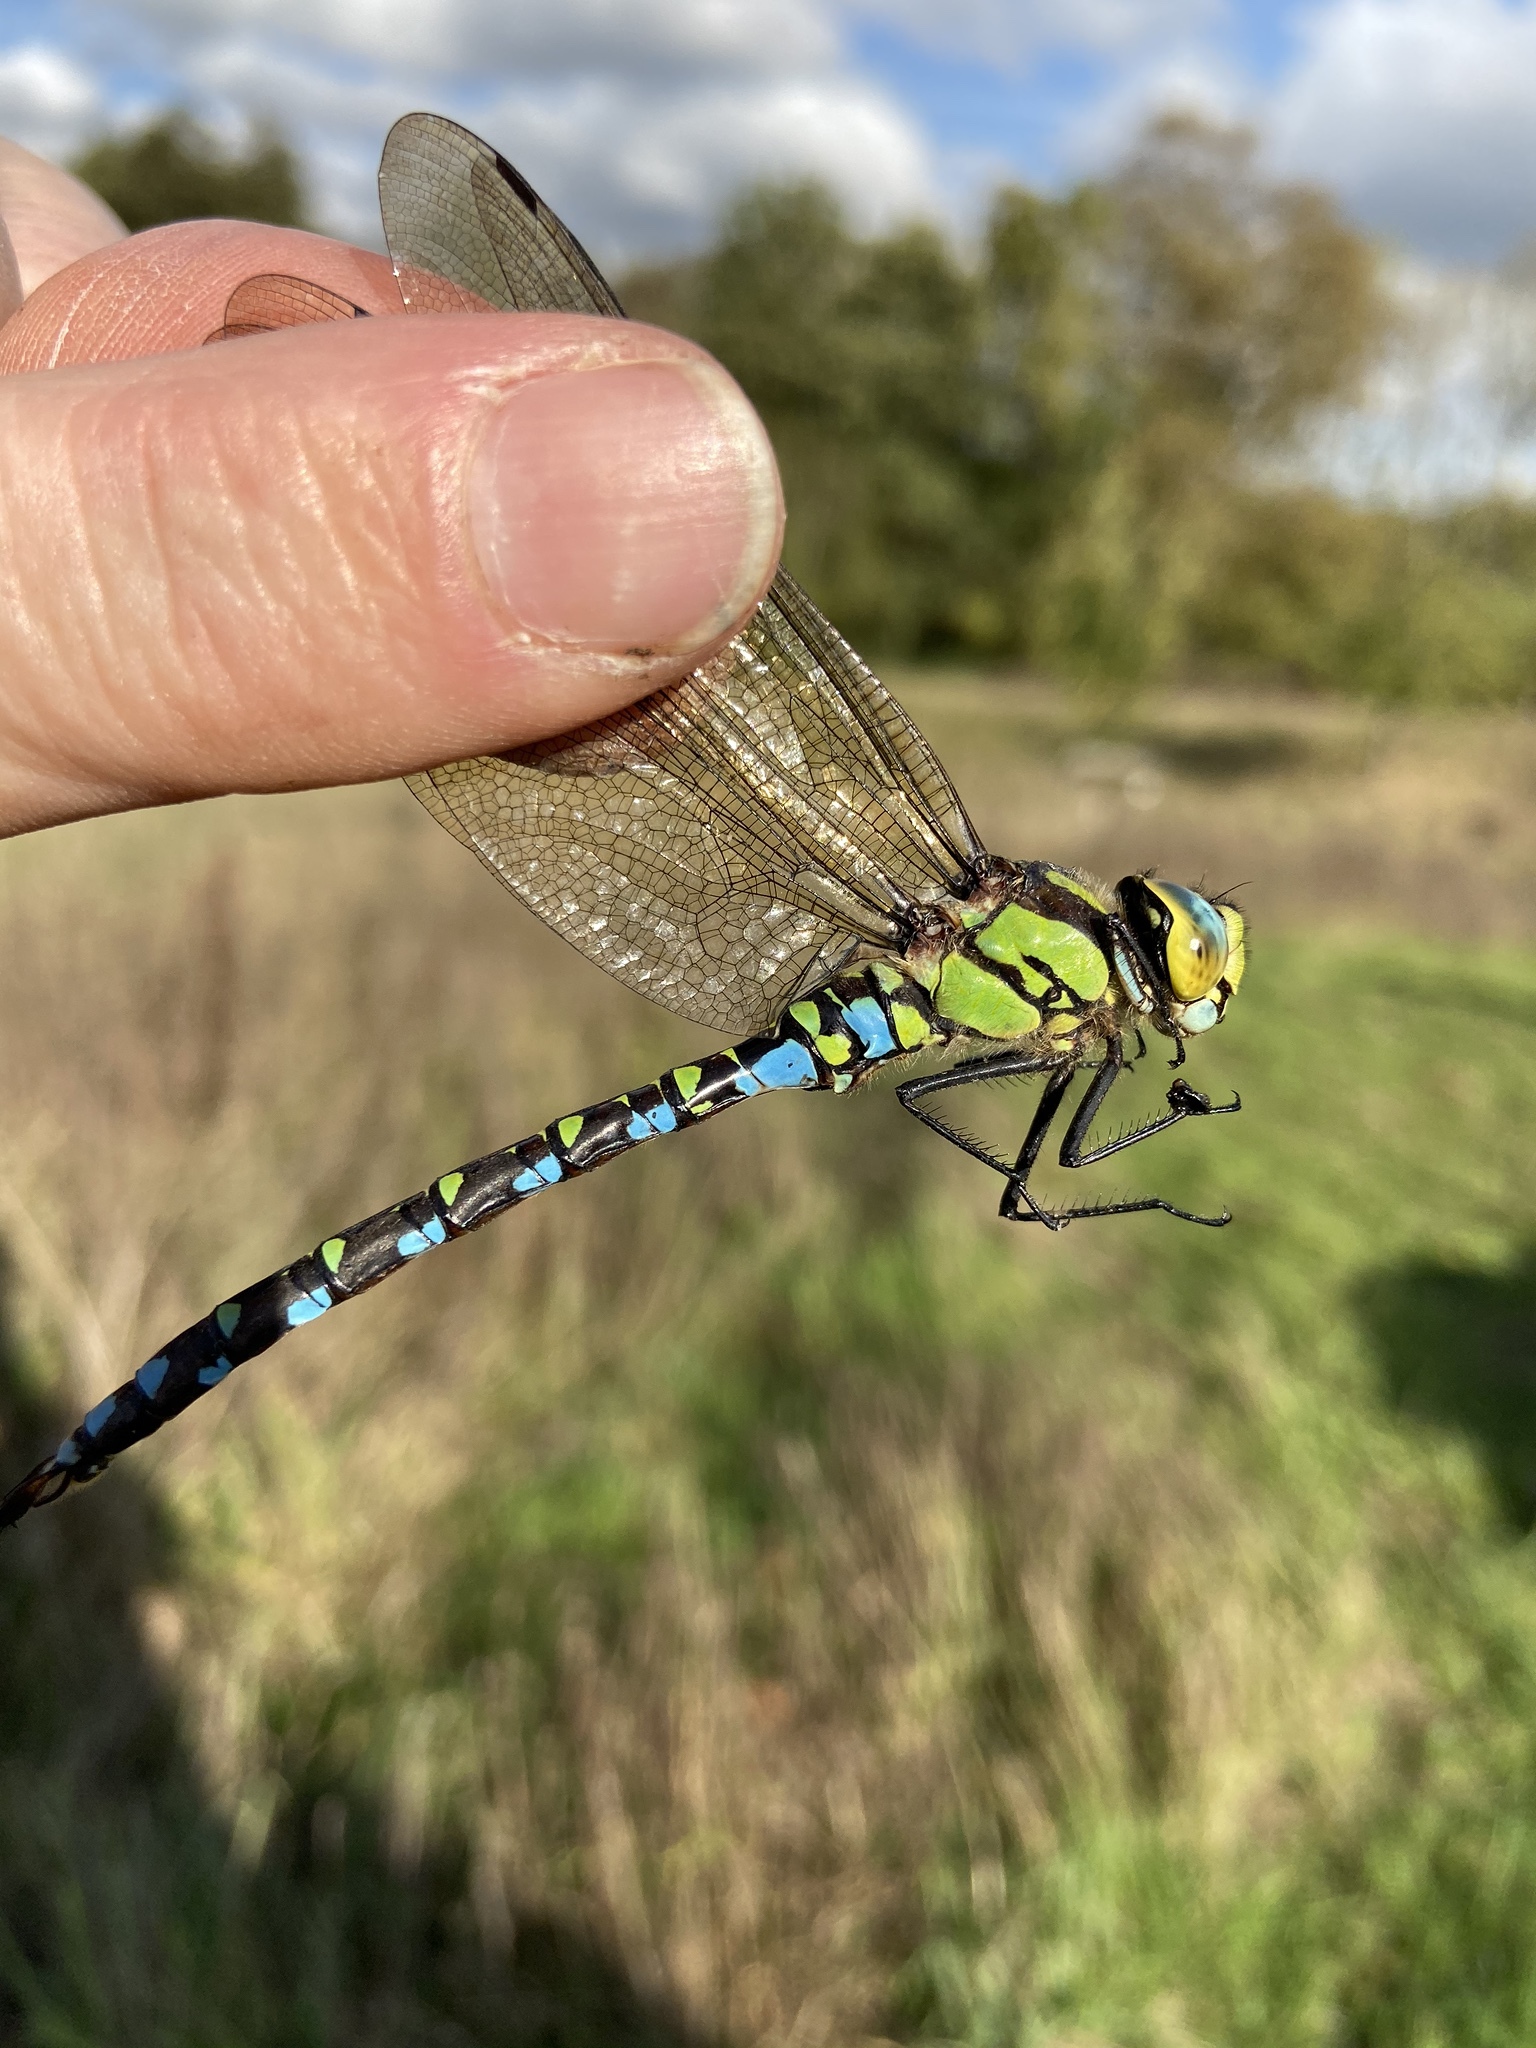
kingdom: Animalia
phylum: Arthropoda
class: Insecta
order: Odonata
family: Aeshnidae
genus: Aeshna
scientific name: Aeshna cyanea
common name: Southern hawker
